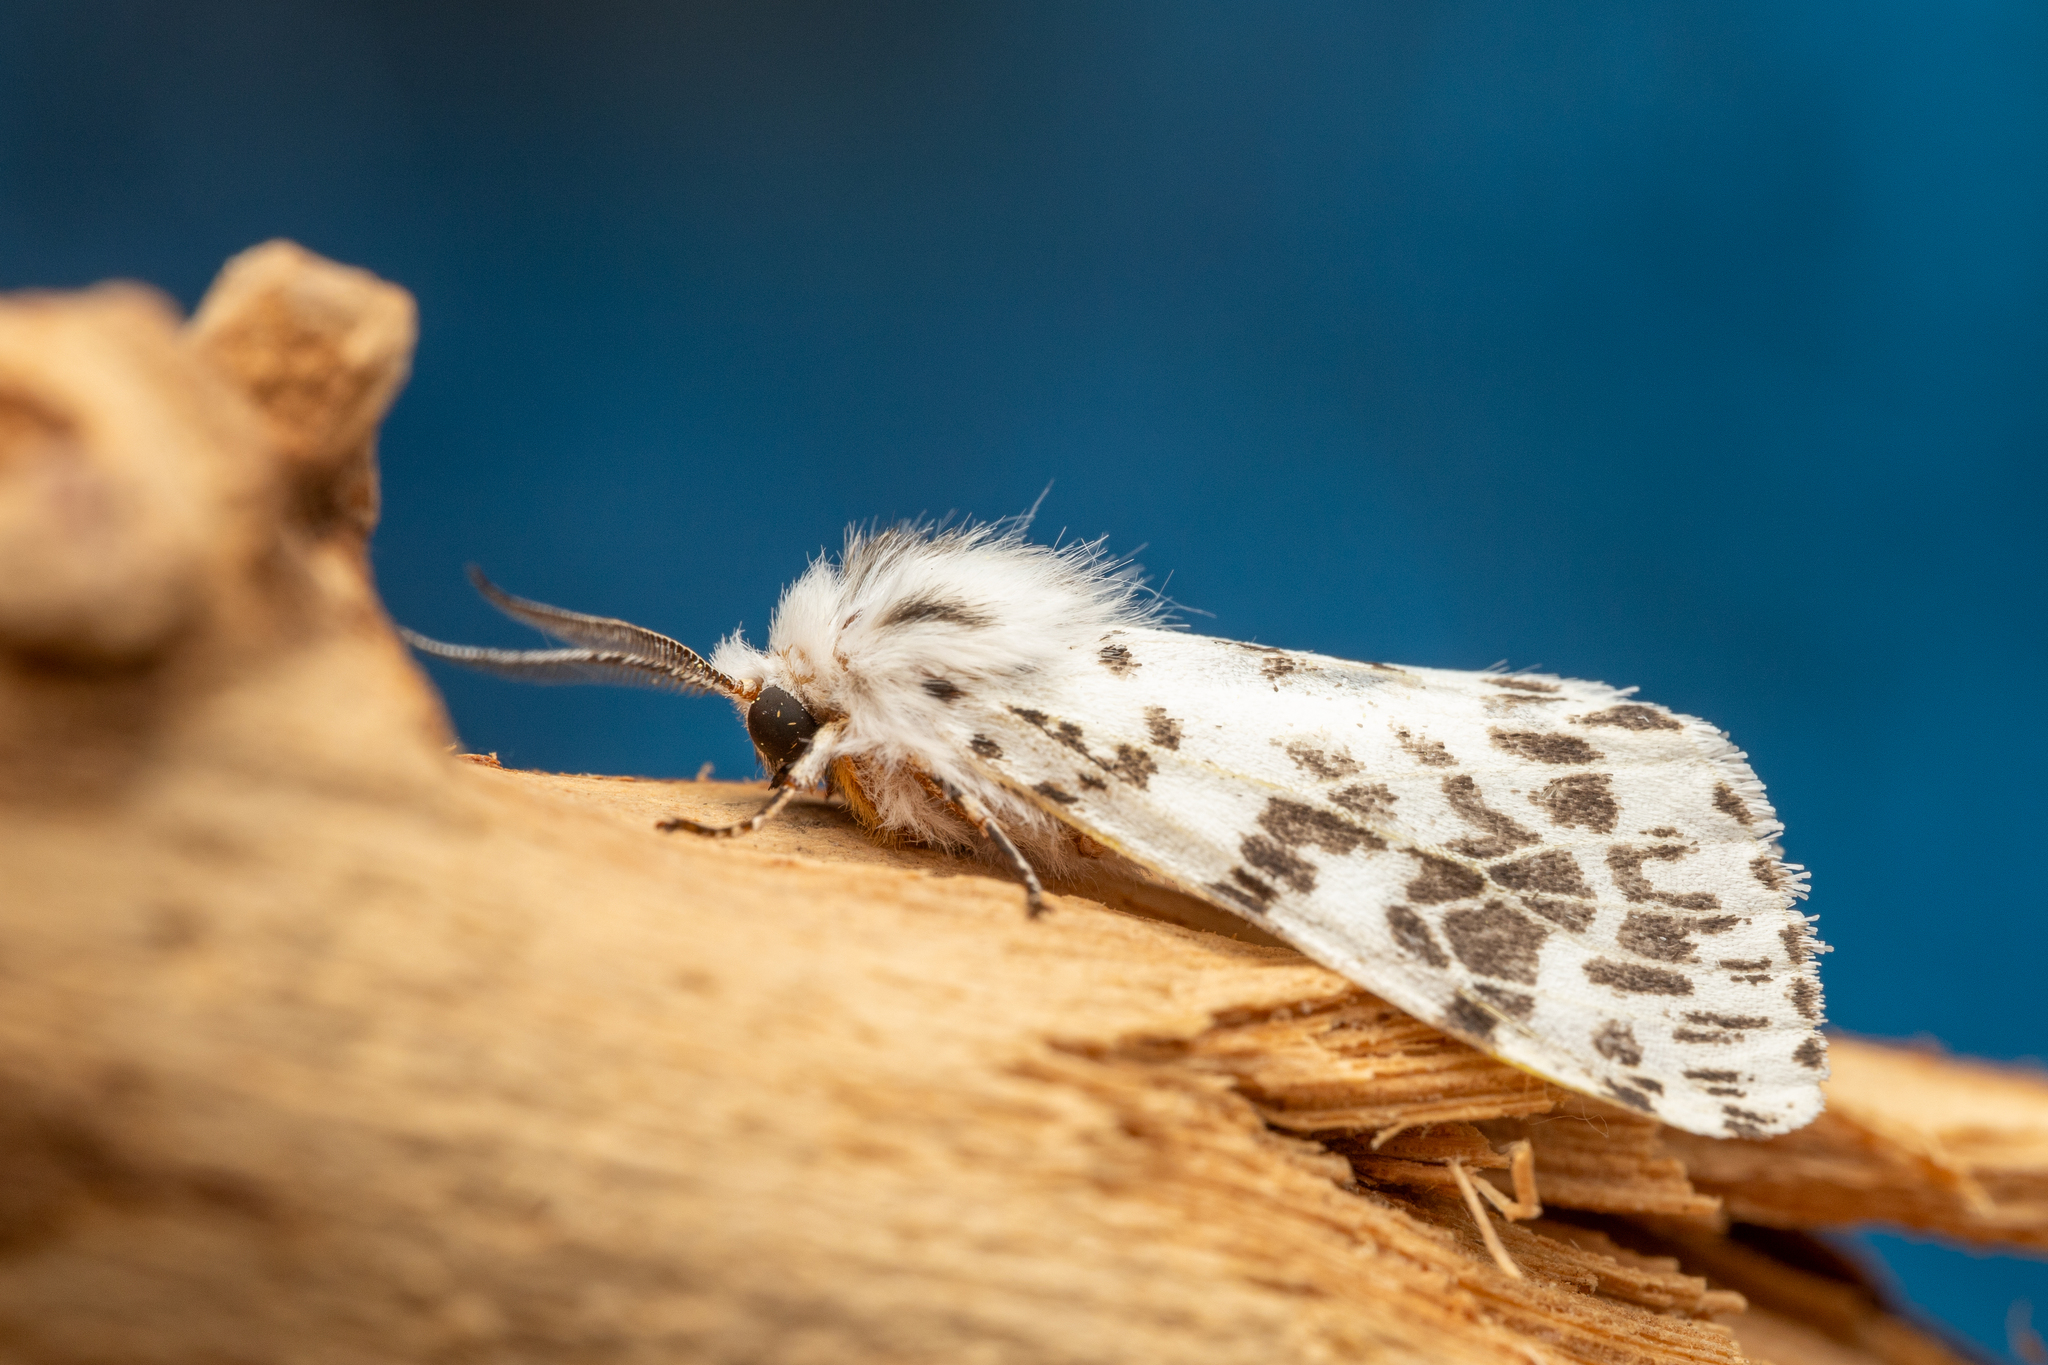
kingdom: Animalia
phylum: Arthropoda
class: Insecta
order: Lepidoptera
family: Erebidae
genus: Hyphantria
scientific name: Hyphantria cunea
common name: American white moth
